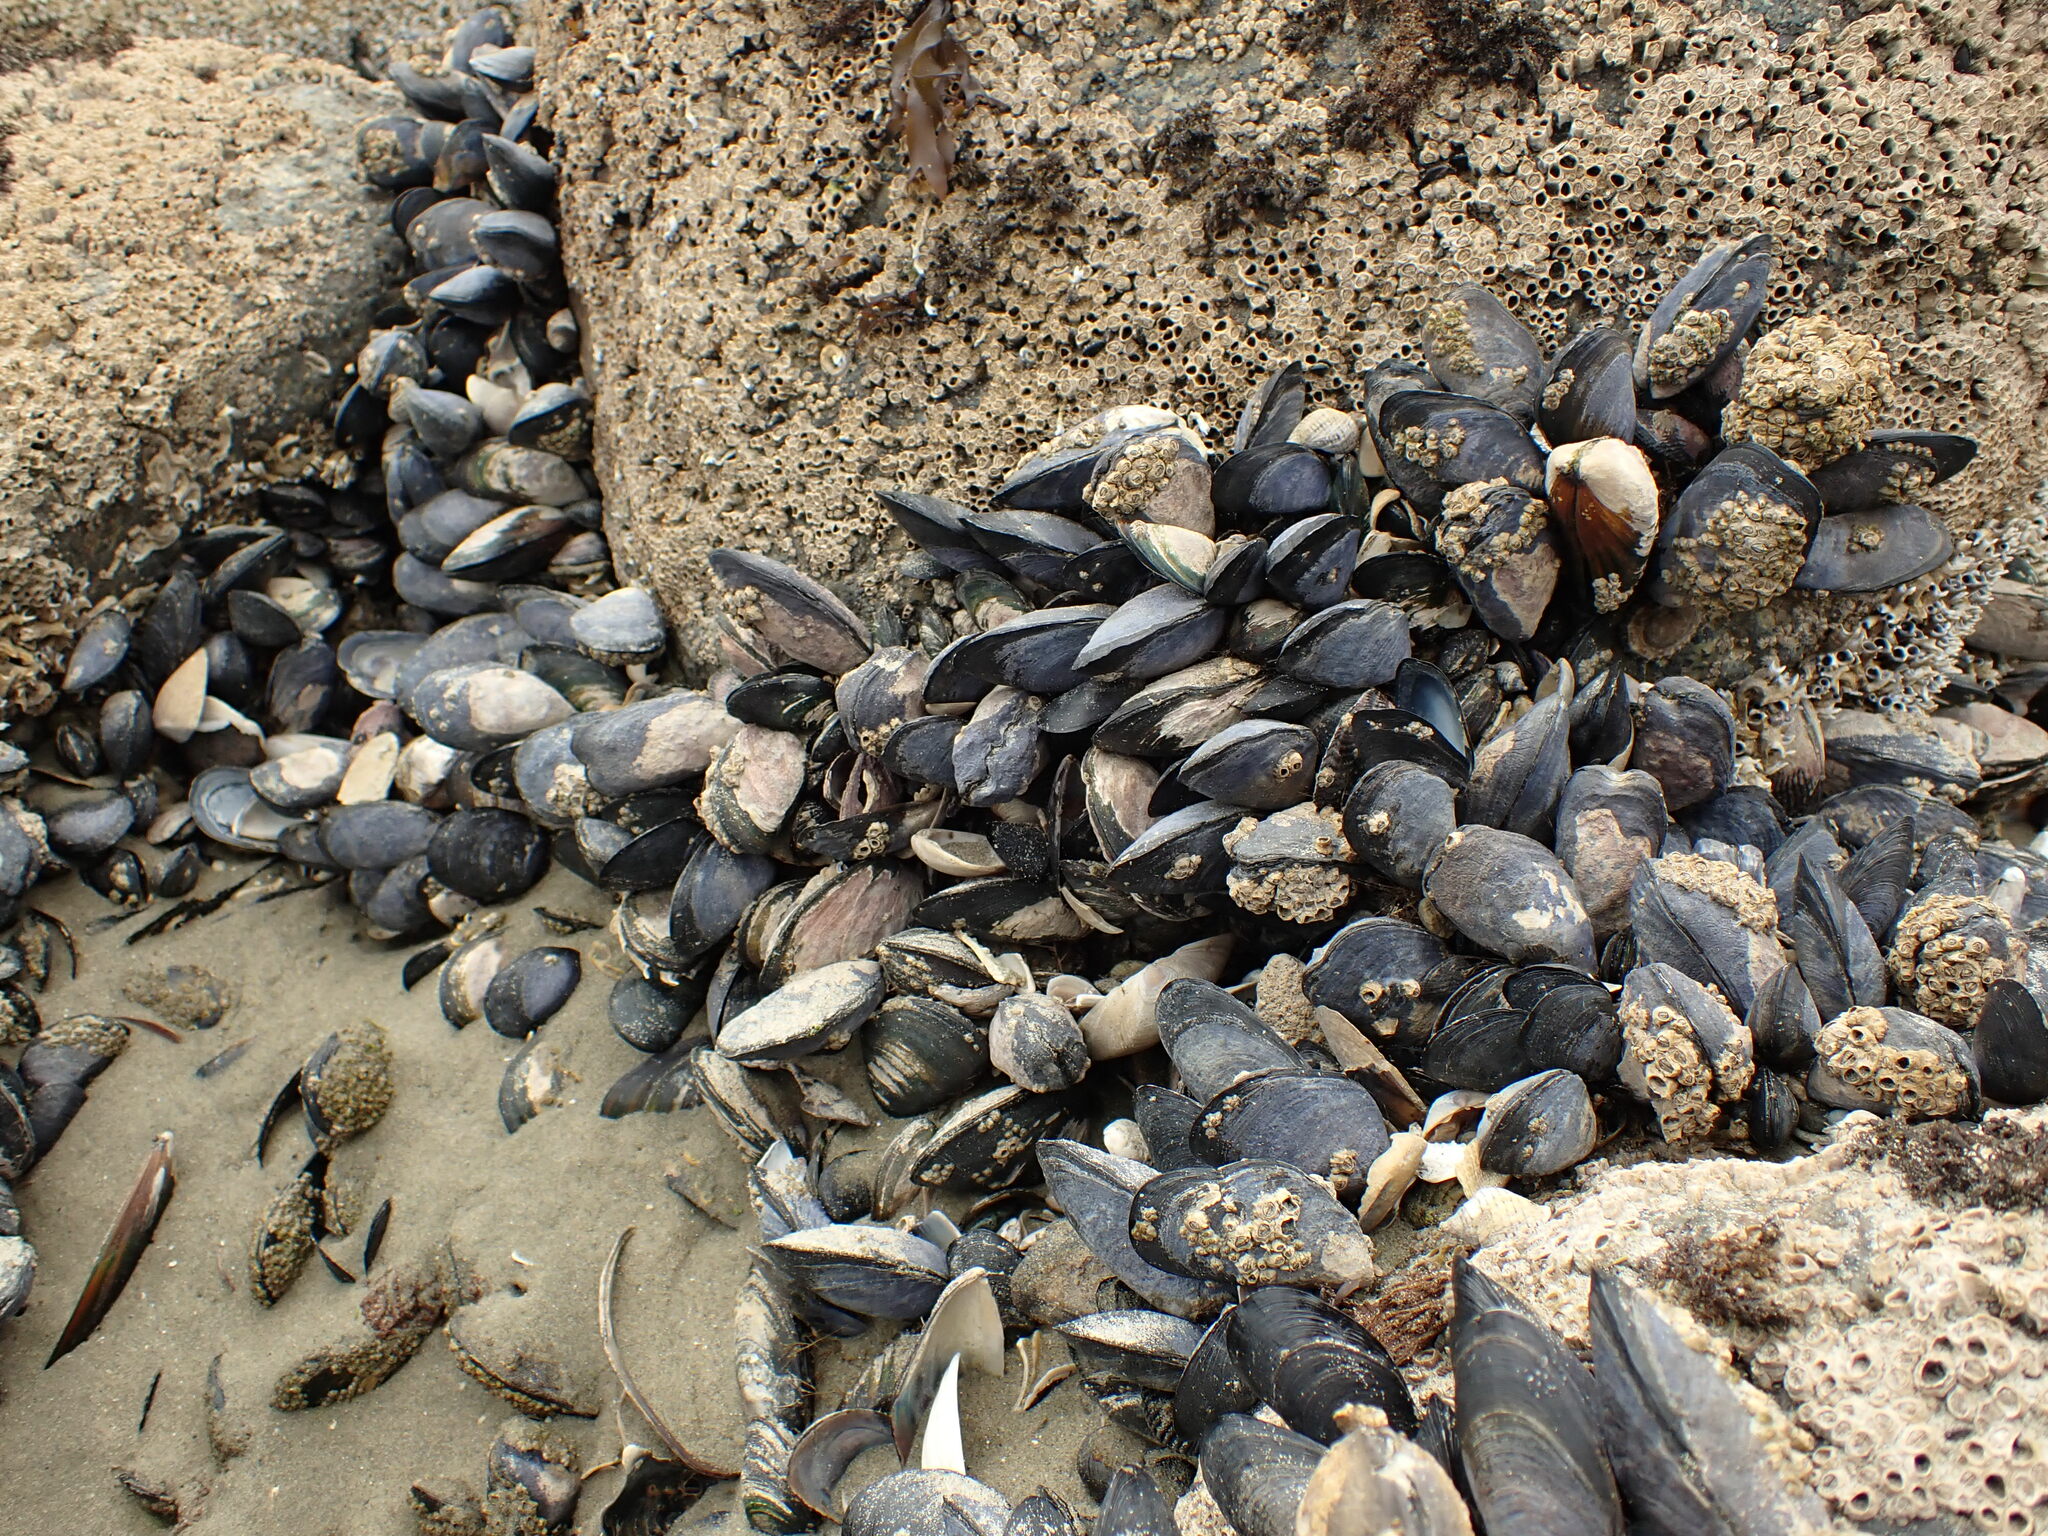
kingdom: Animalia
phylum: Mollusca
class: Bivalvia
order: Mytilida
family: Mytilidae
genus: Mytilus
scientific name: Mytilus planulatus
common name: Australian mussel
